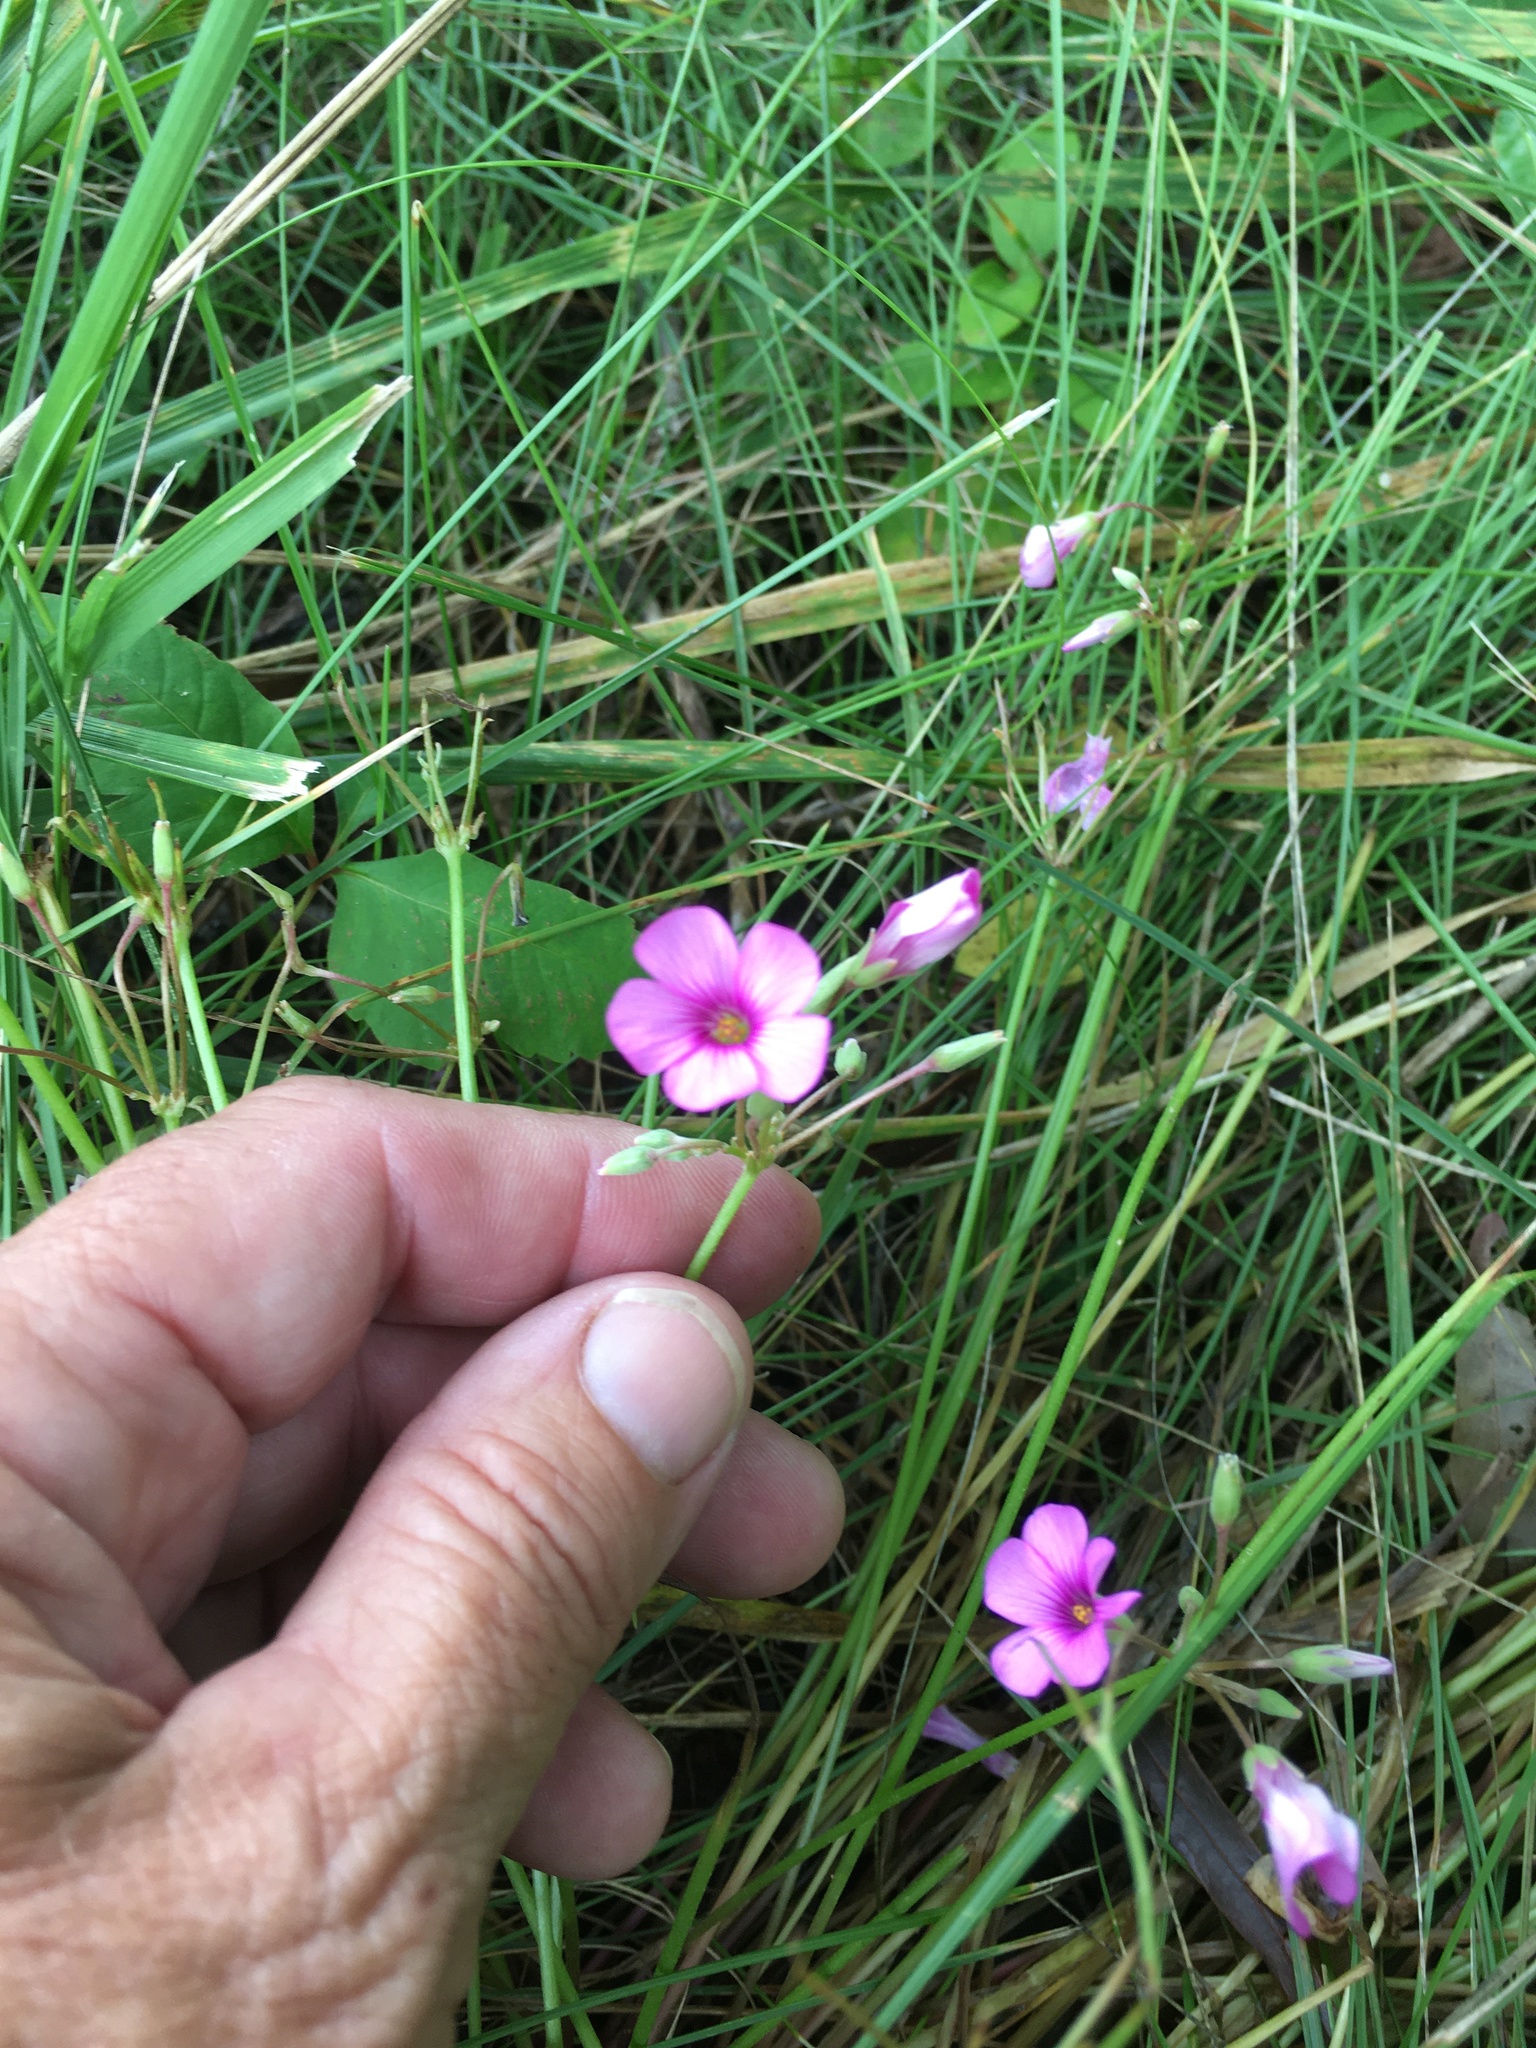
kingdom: Plantae
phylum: Tracheophyta
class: Magnoliopsida
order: Oxalidales
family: Oxalidaceae
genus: Oxalis
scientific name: Oxalis articulata
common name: Pink-sorrel
